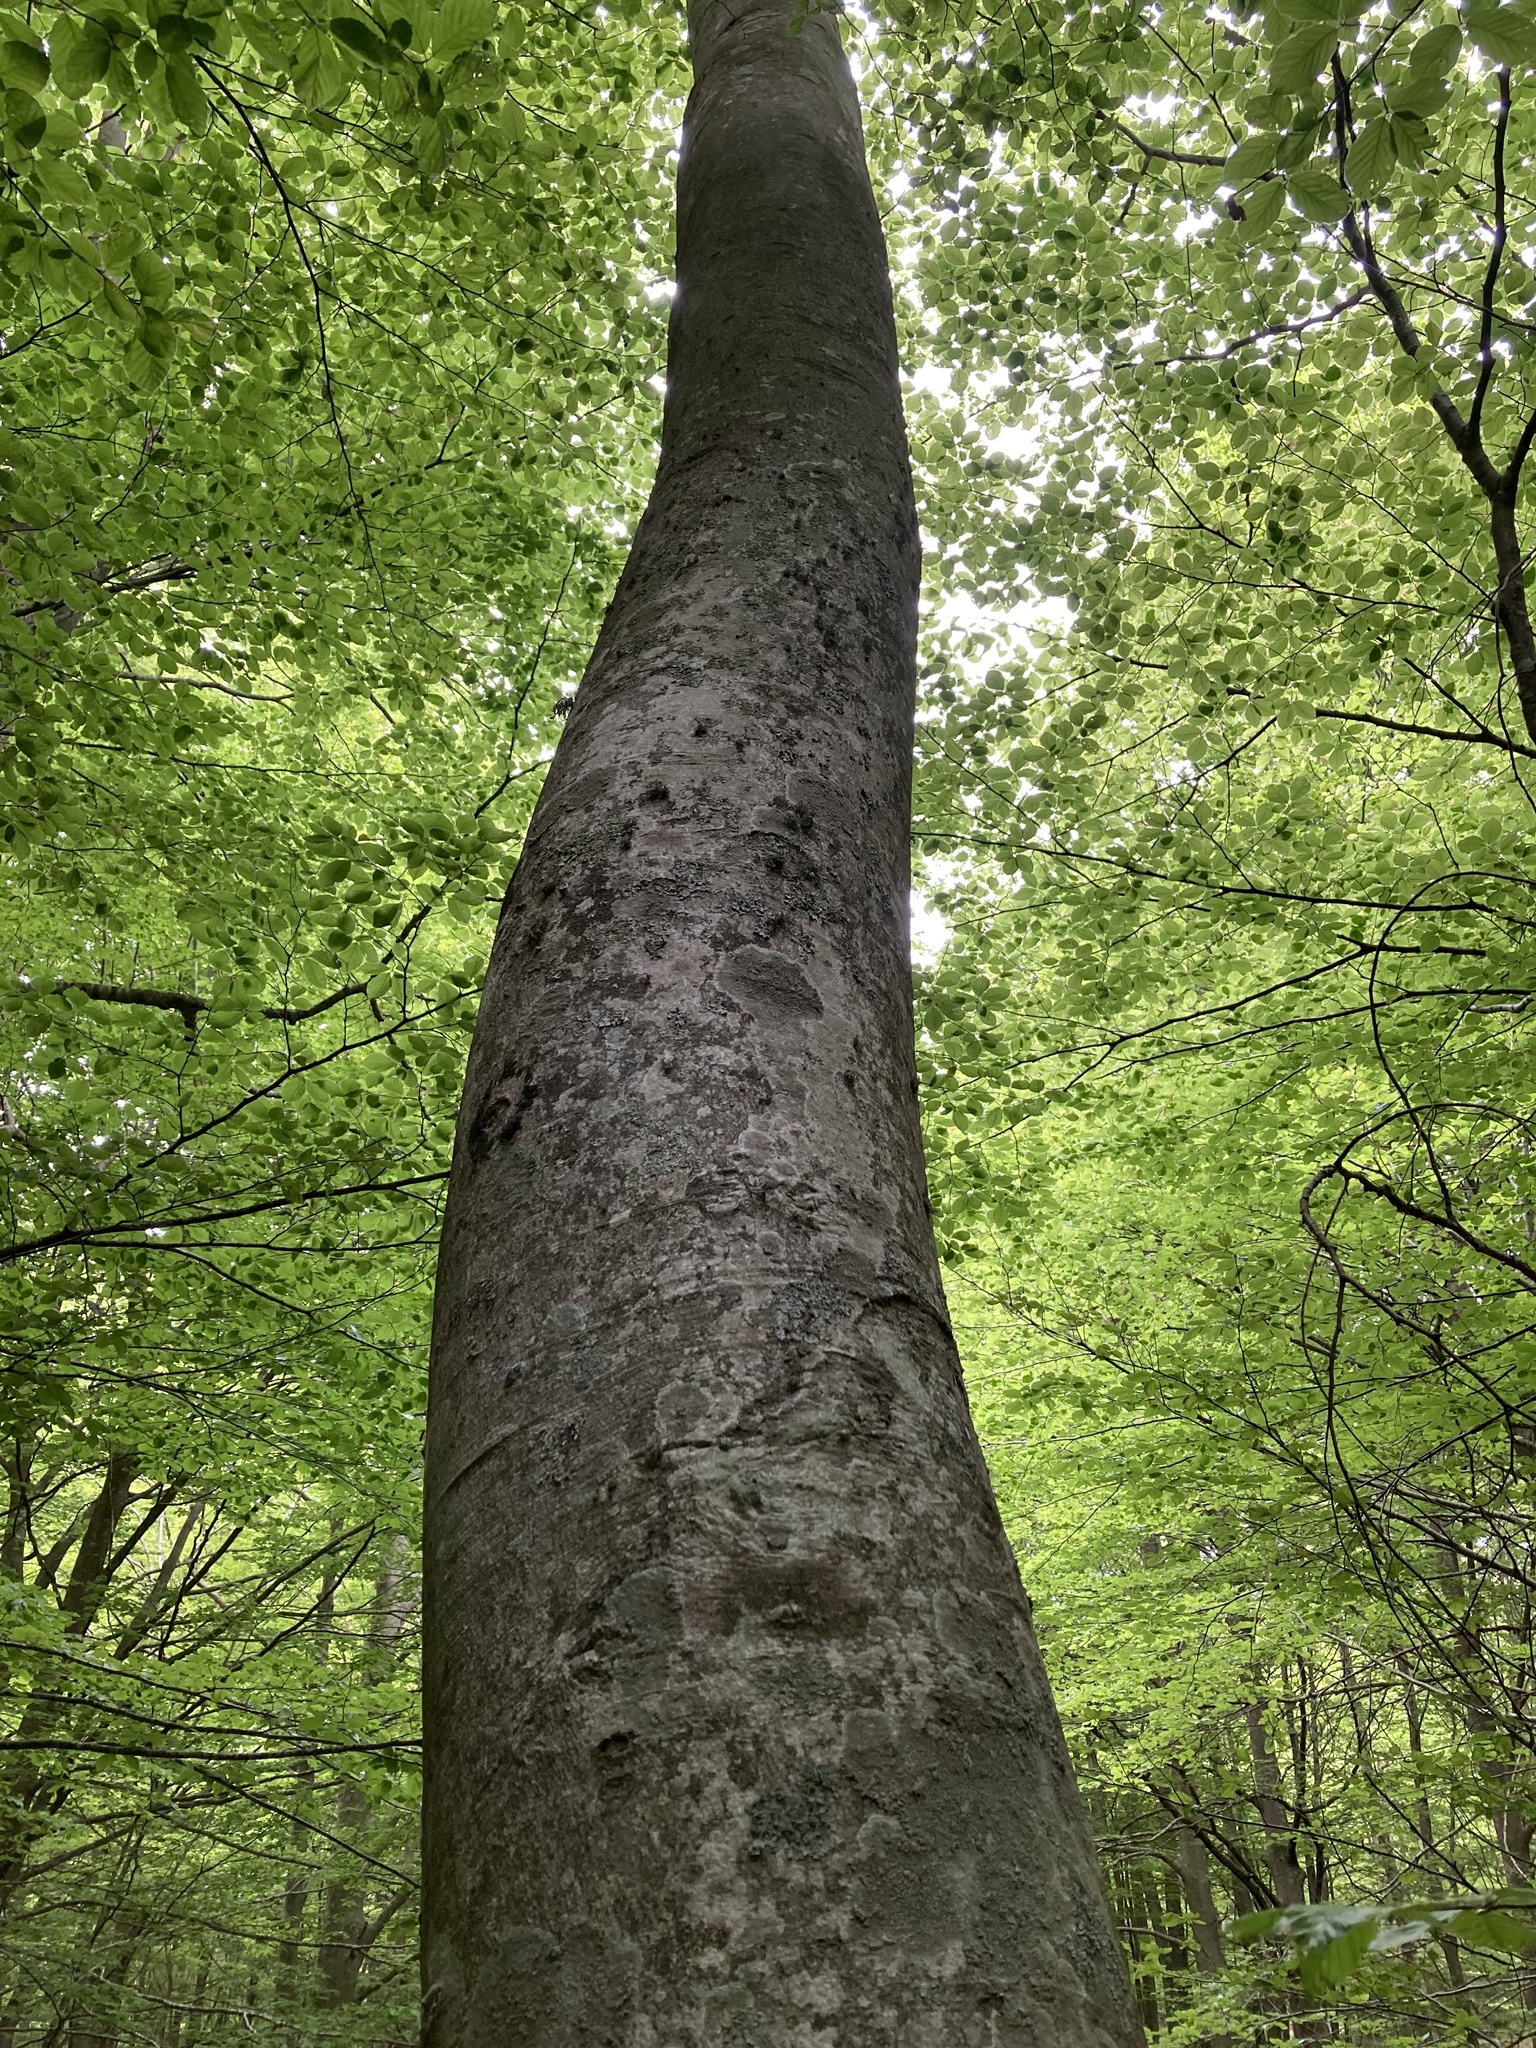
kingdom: Plantae
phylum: Tracheophyta
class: Magnoliopsida
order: Fagales
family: Fagaceae
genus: Fagus
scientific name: Fagus sylvatica
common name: Beech
